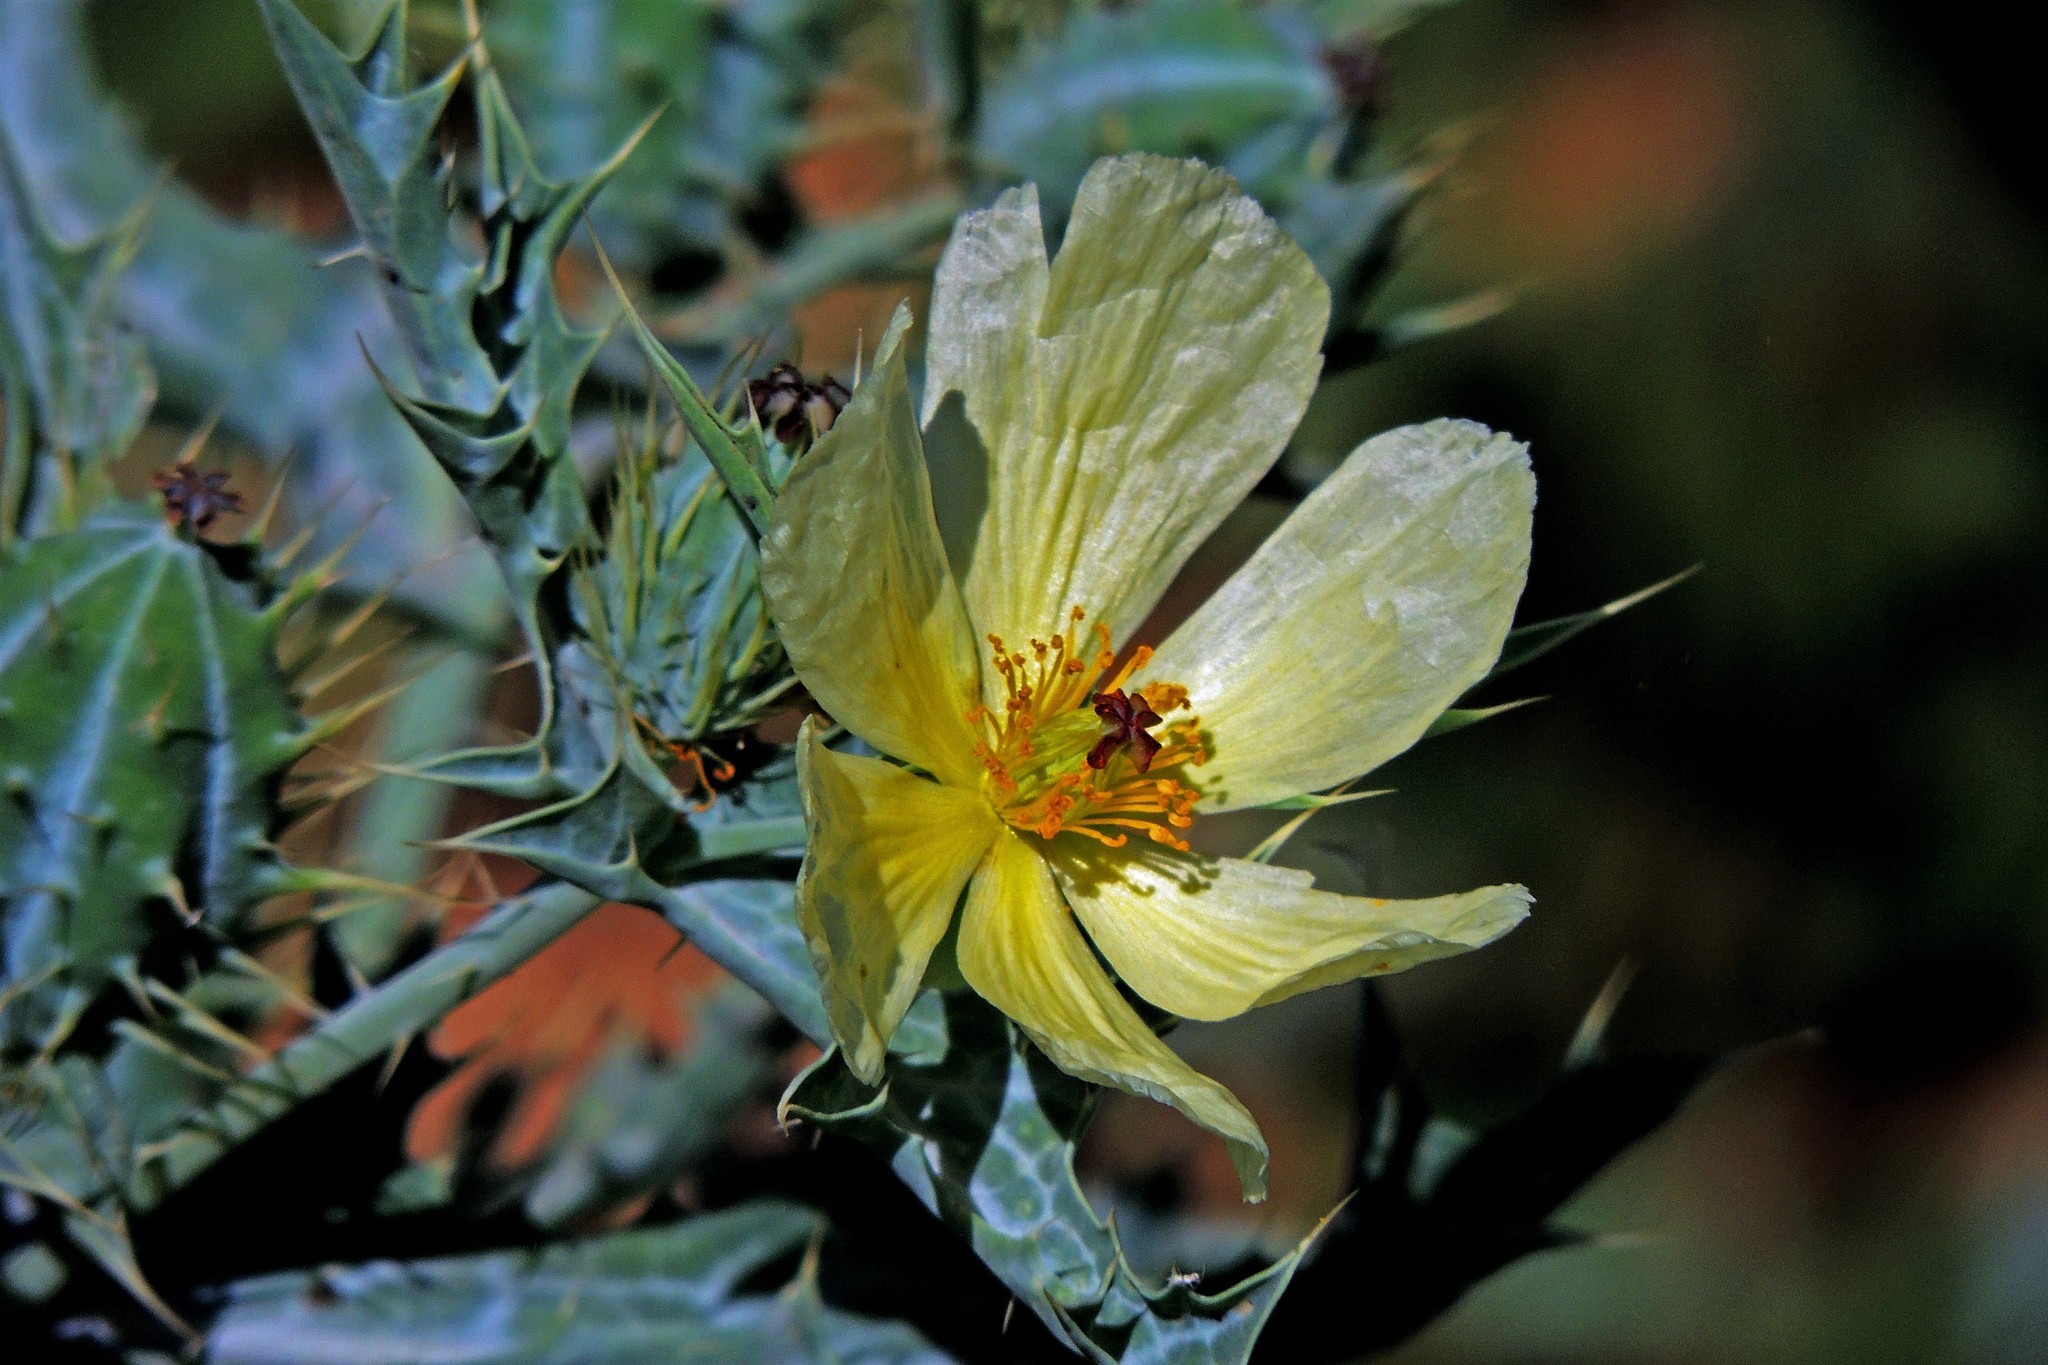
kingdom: Plantae
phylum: Tracheophyta
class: Magnoliopsida
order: Ranunculales
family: Papaveraceae
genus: Argemone
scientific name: Argemone subfusiformis
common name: American-poppy
